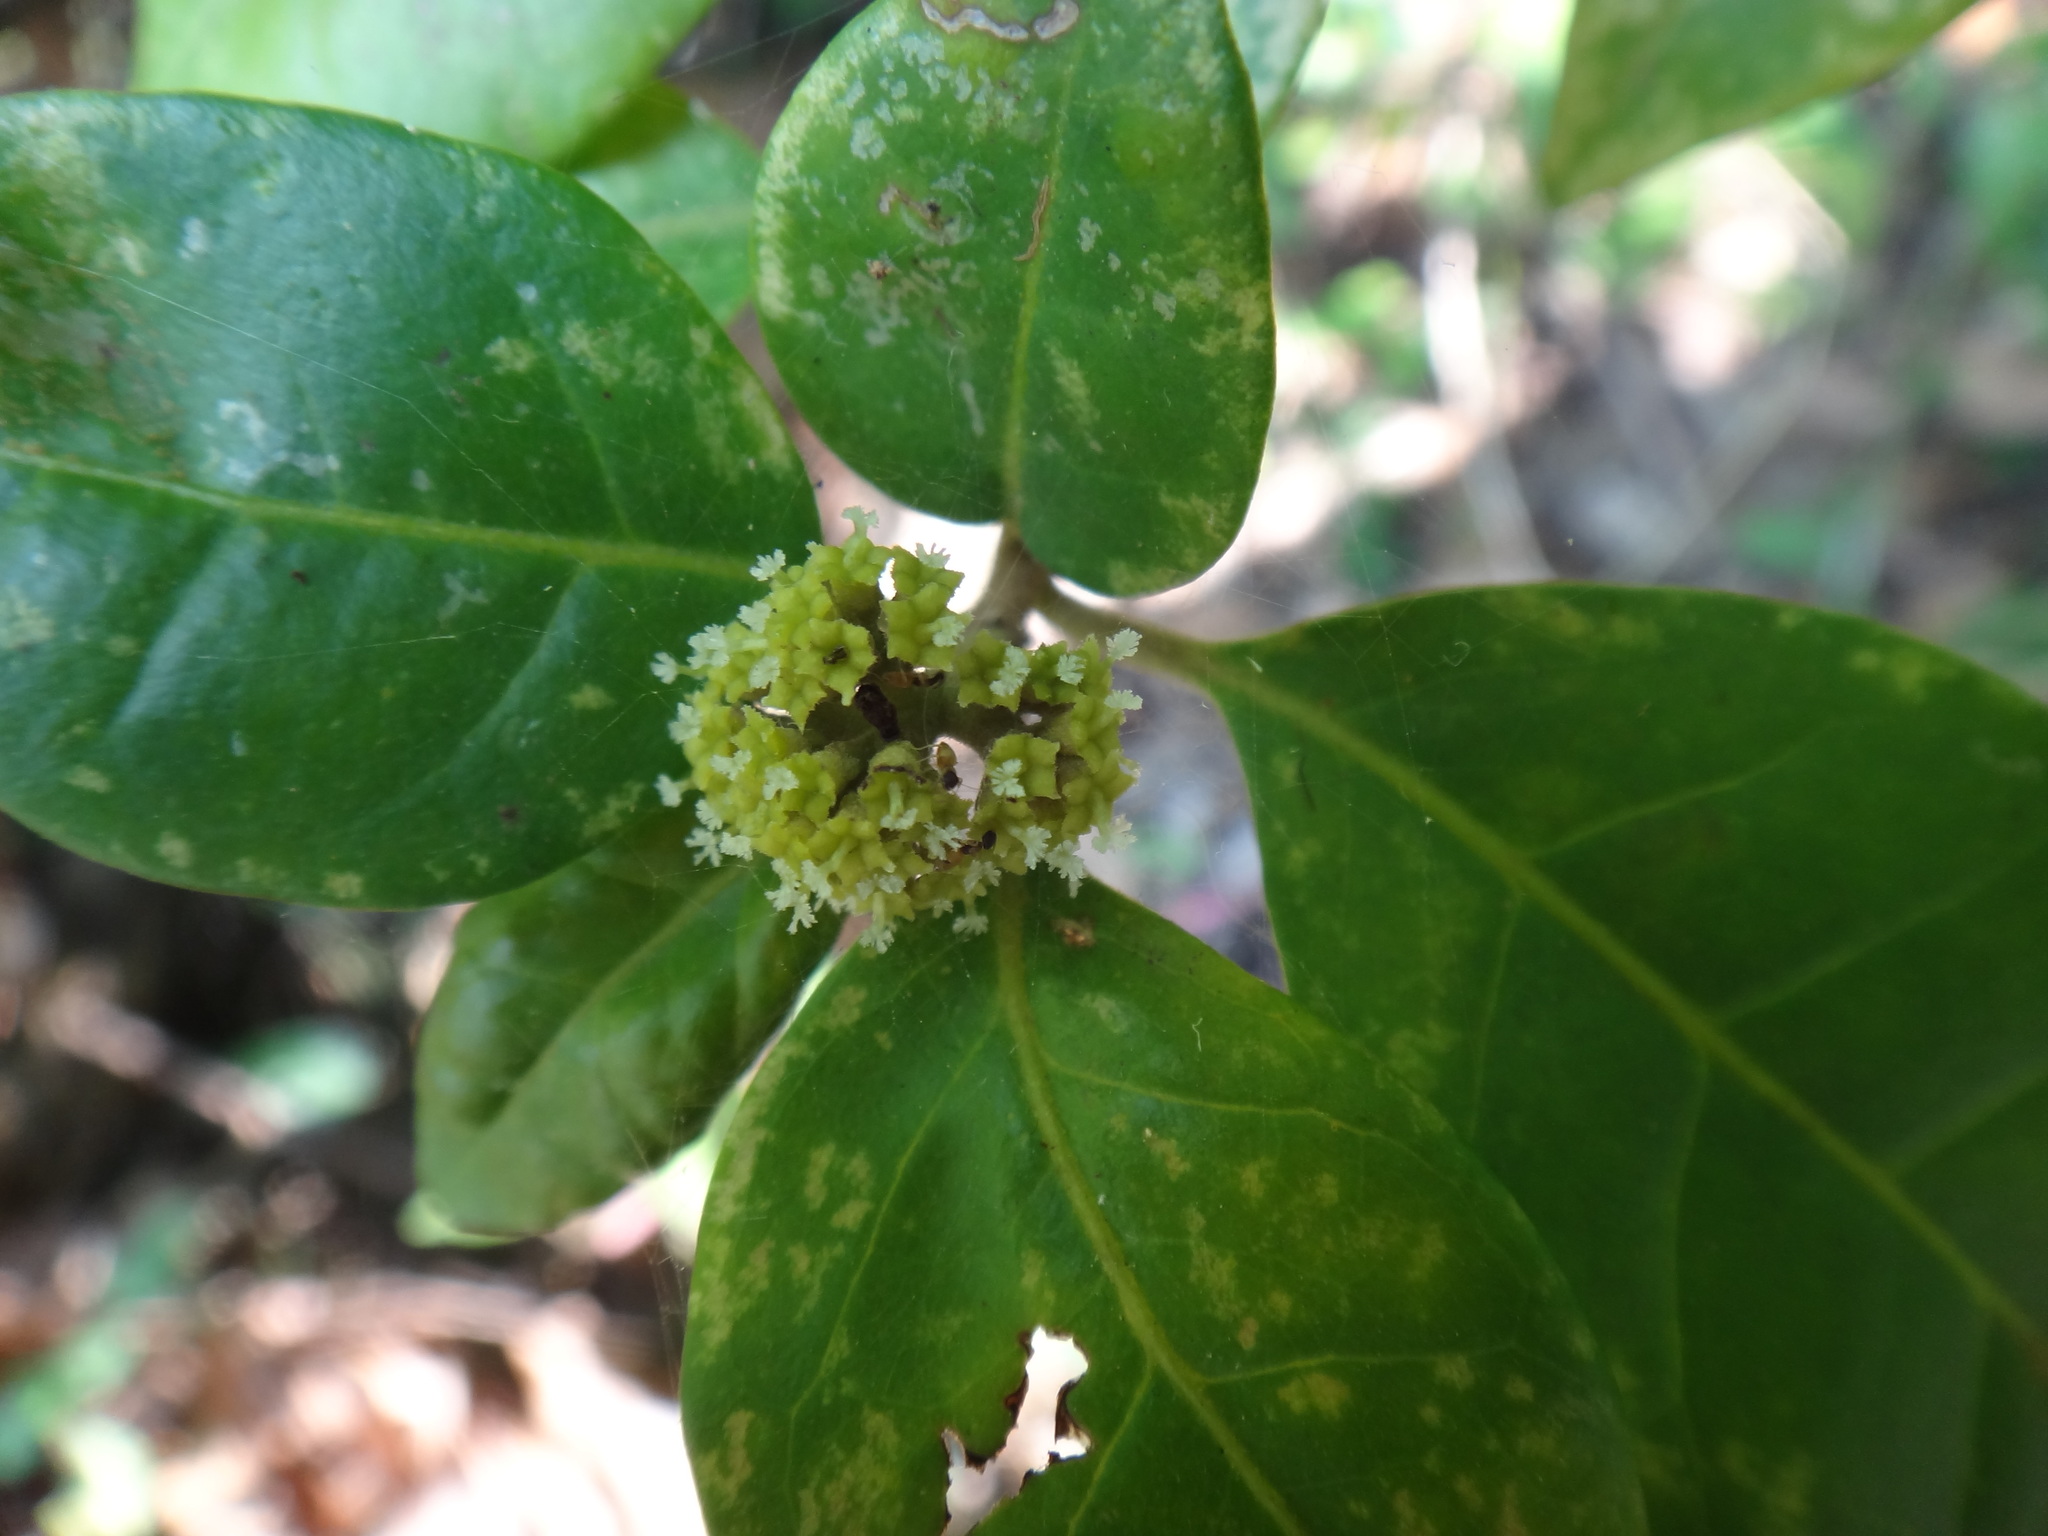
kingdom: Plantae
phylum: Tracheophyta
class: Magnoliopsida
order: Caryophyllales
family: Nyctaginaceae
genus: Pisonia
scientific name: Pisonia aculeata
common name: Cockspur vine
